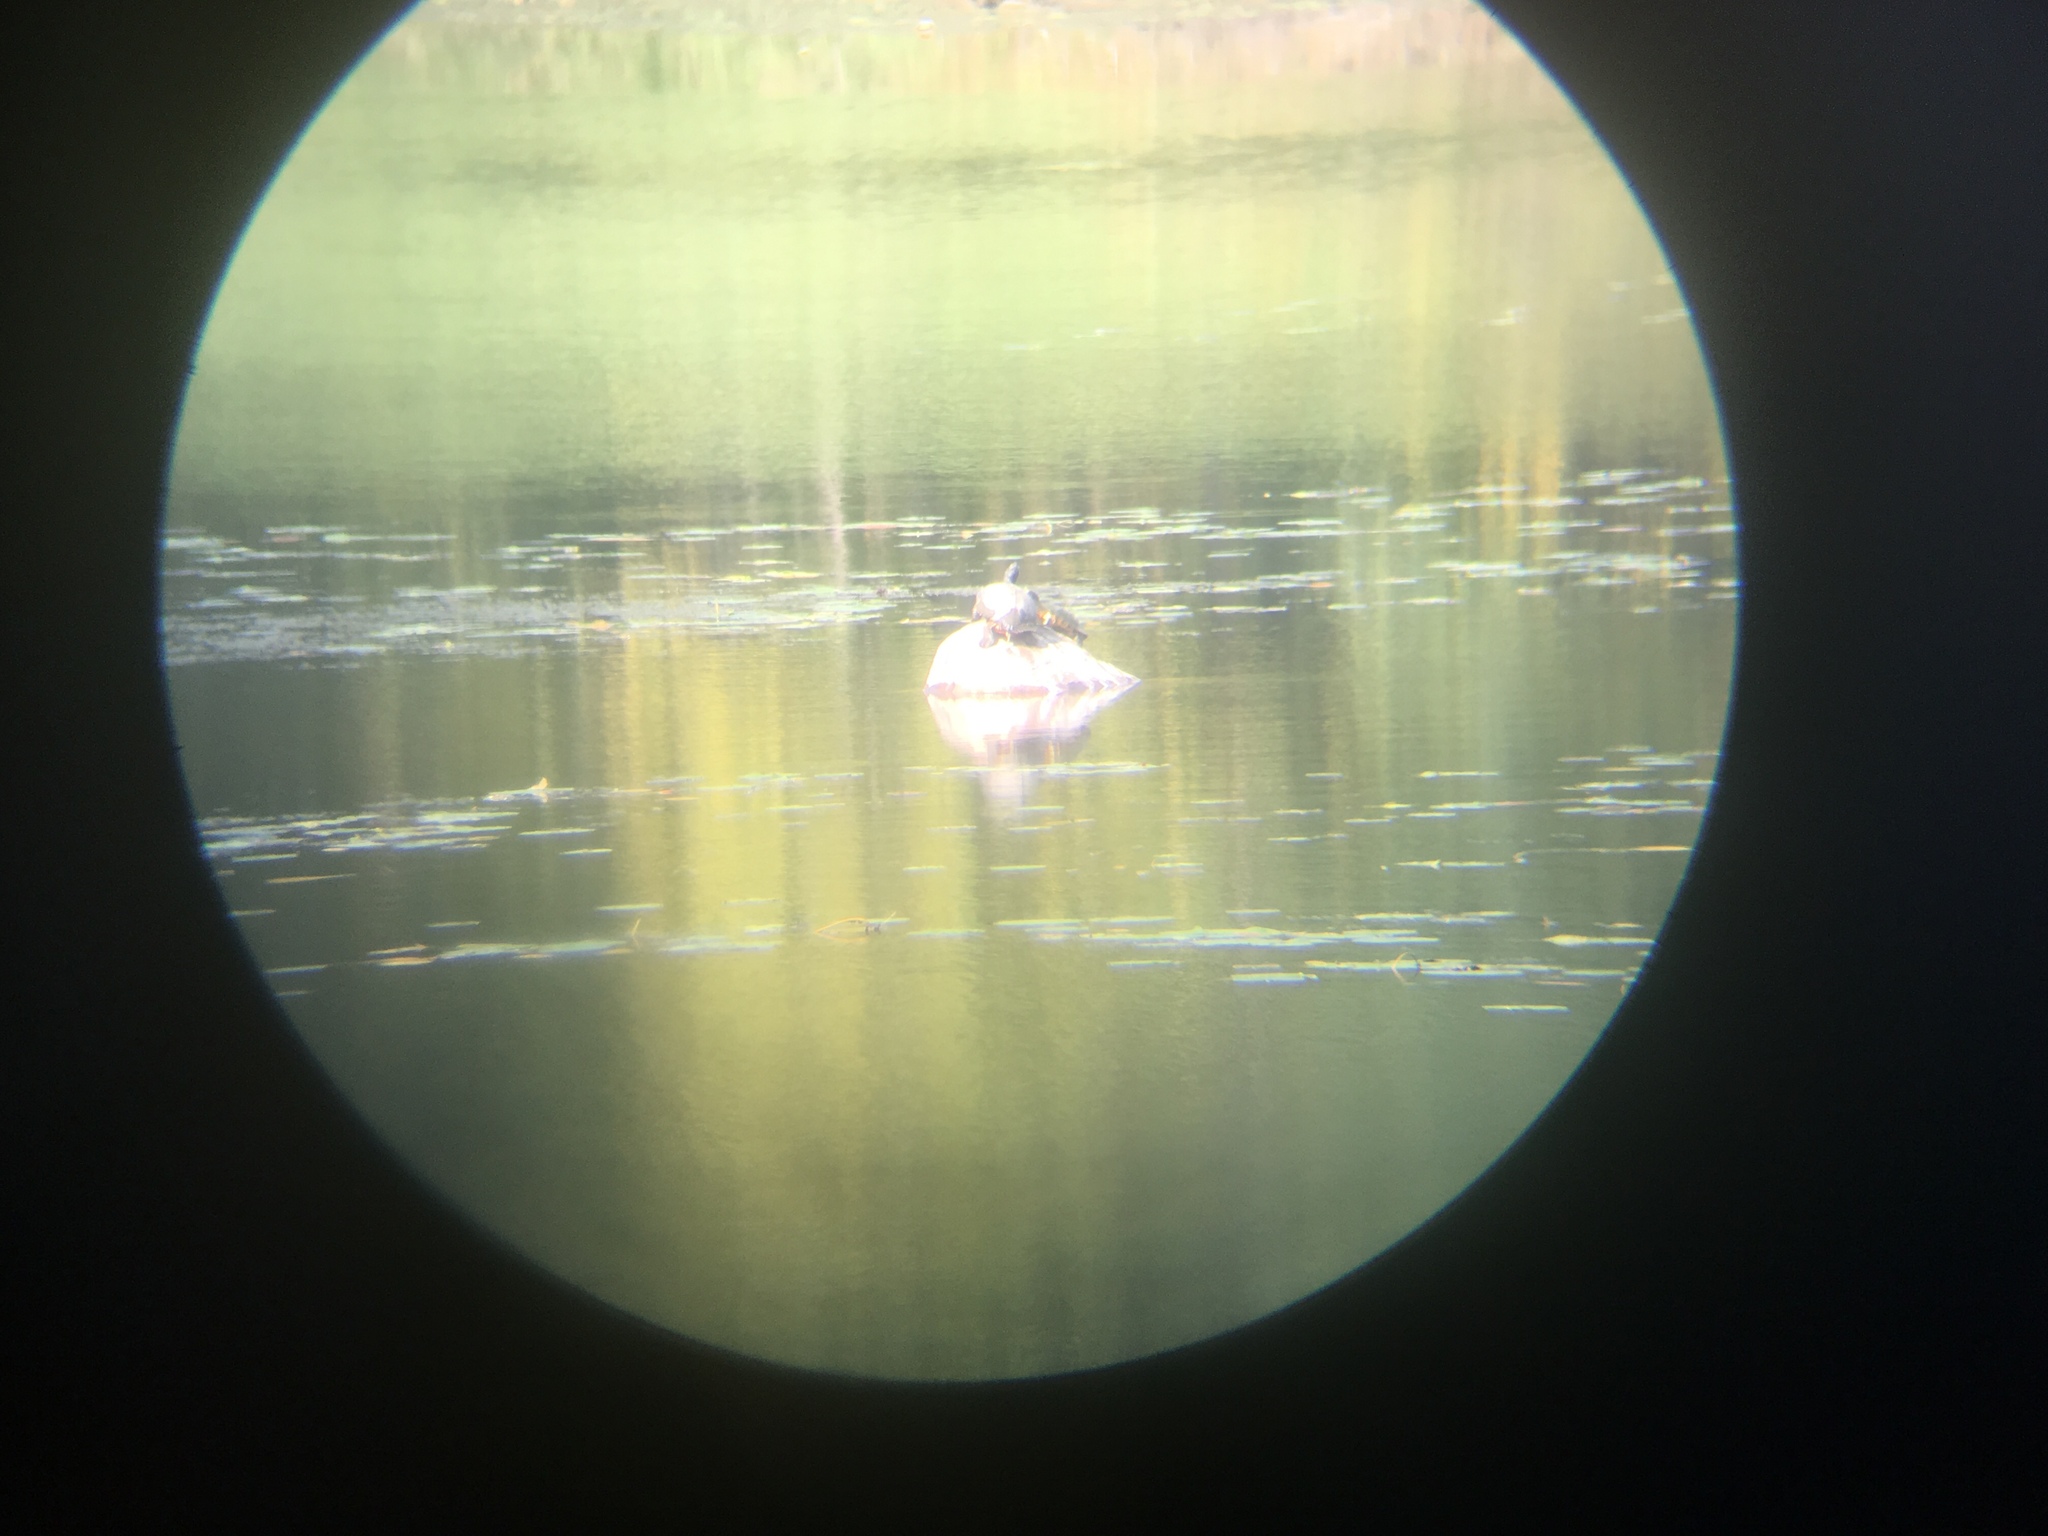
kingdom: Animalia
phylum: Chordata
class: Testudines
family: Emydidae
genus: Trachemys
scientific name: Trachemys scripta
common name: Slider
